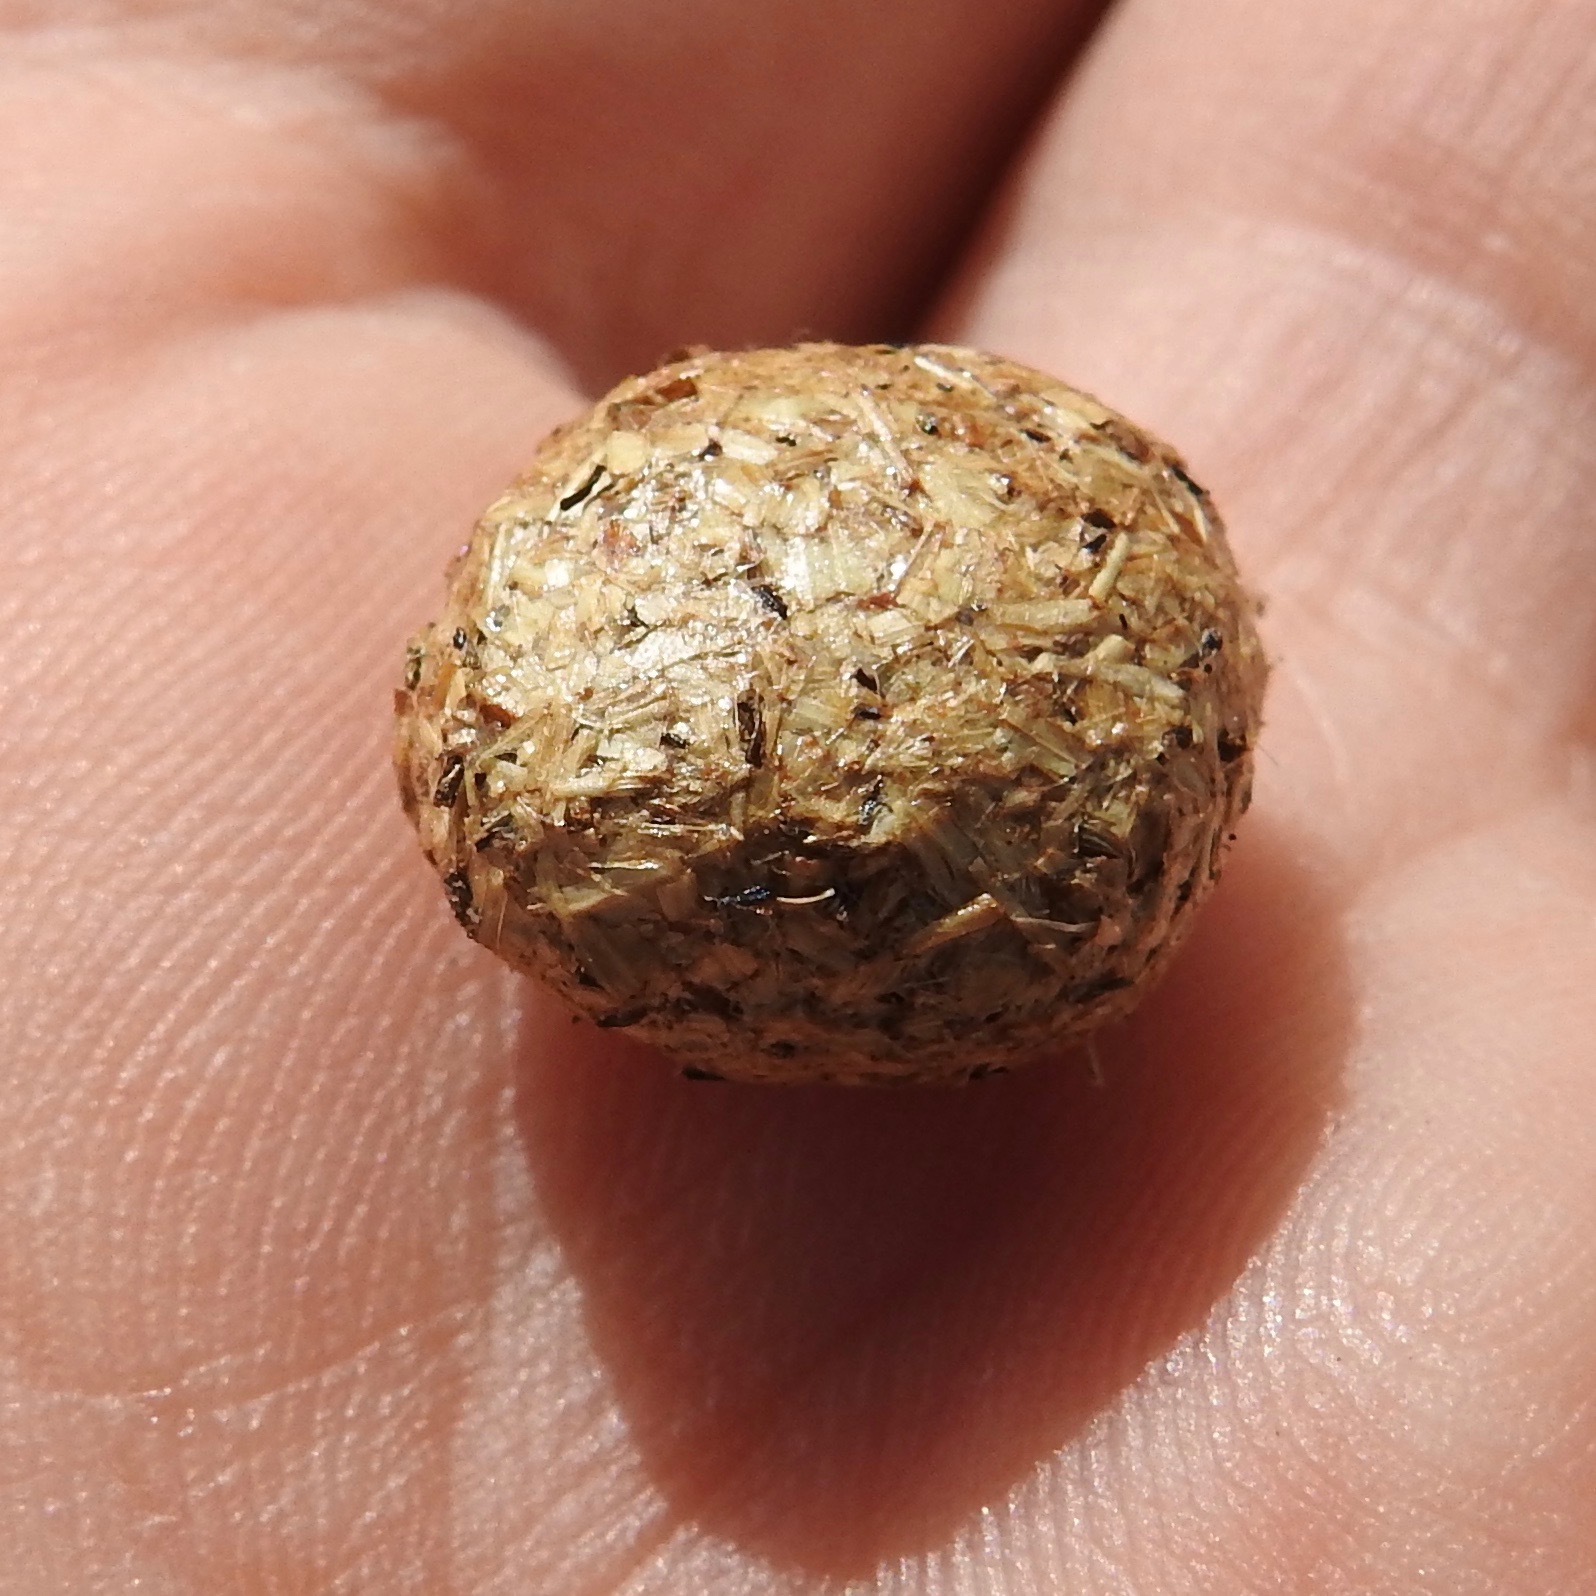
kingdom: Animalia
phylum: Chordata
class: Mammalia
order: Lagomorpha
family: Leporidae
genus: Lepus
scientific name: Lepus californicus
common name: Black-tailed jackrabbit
